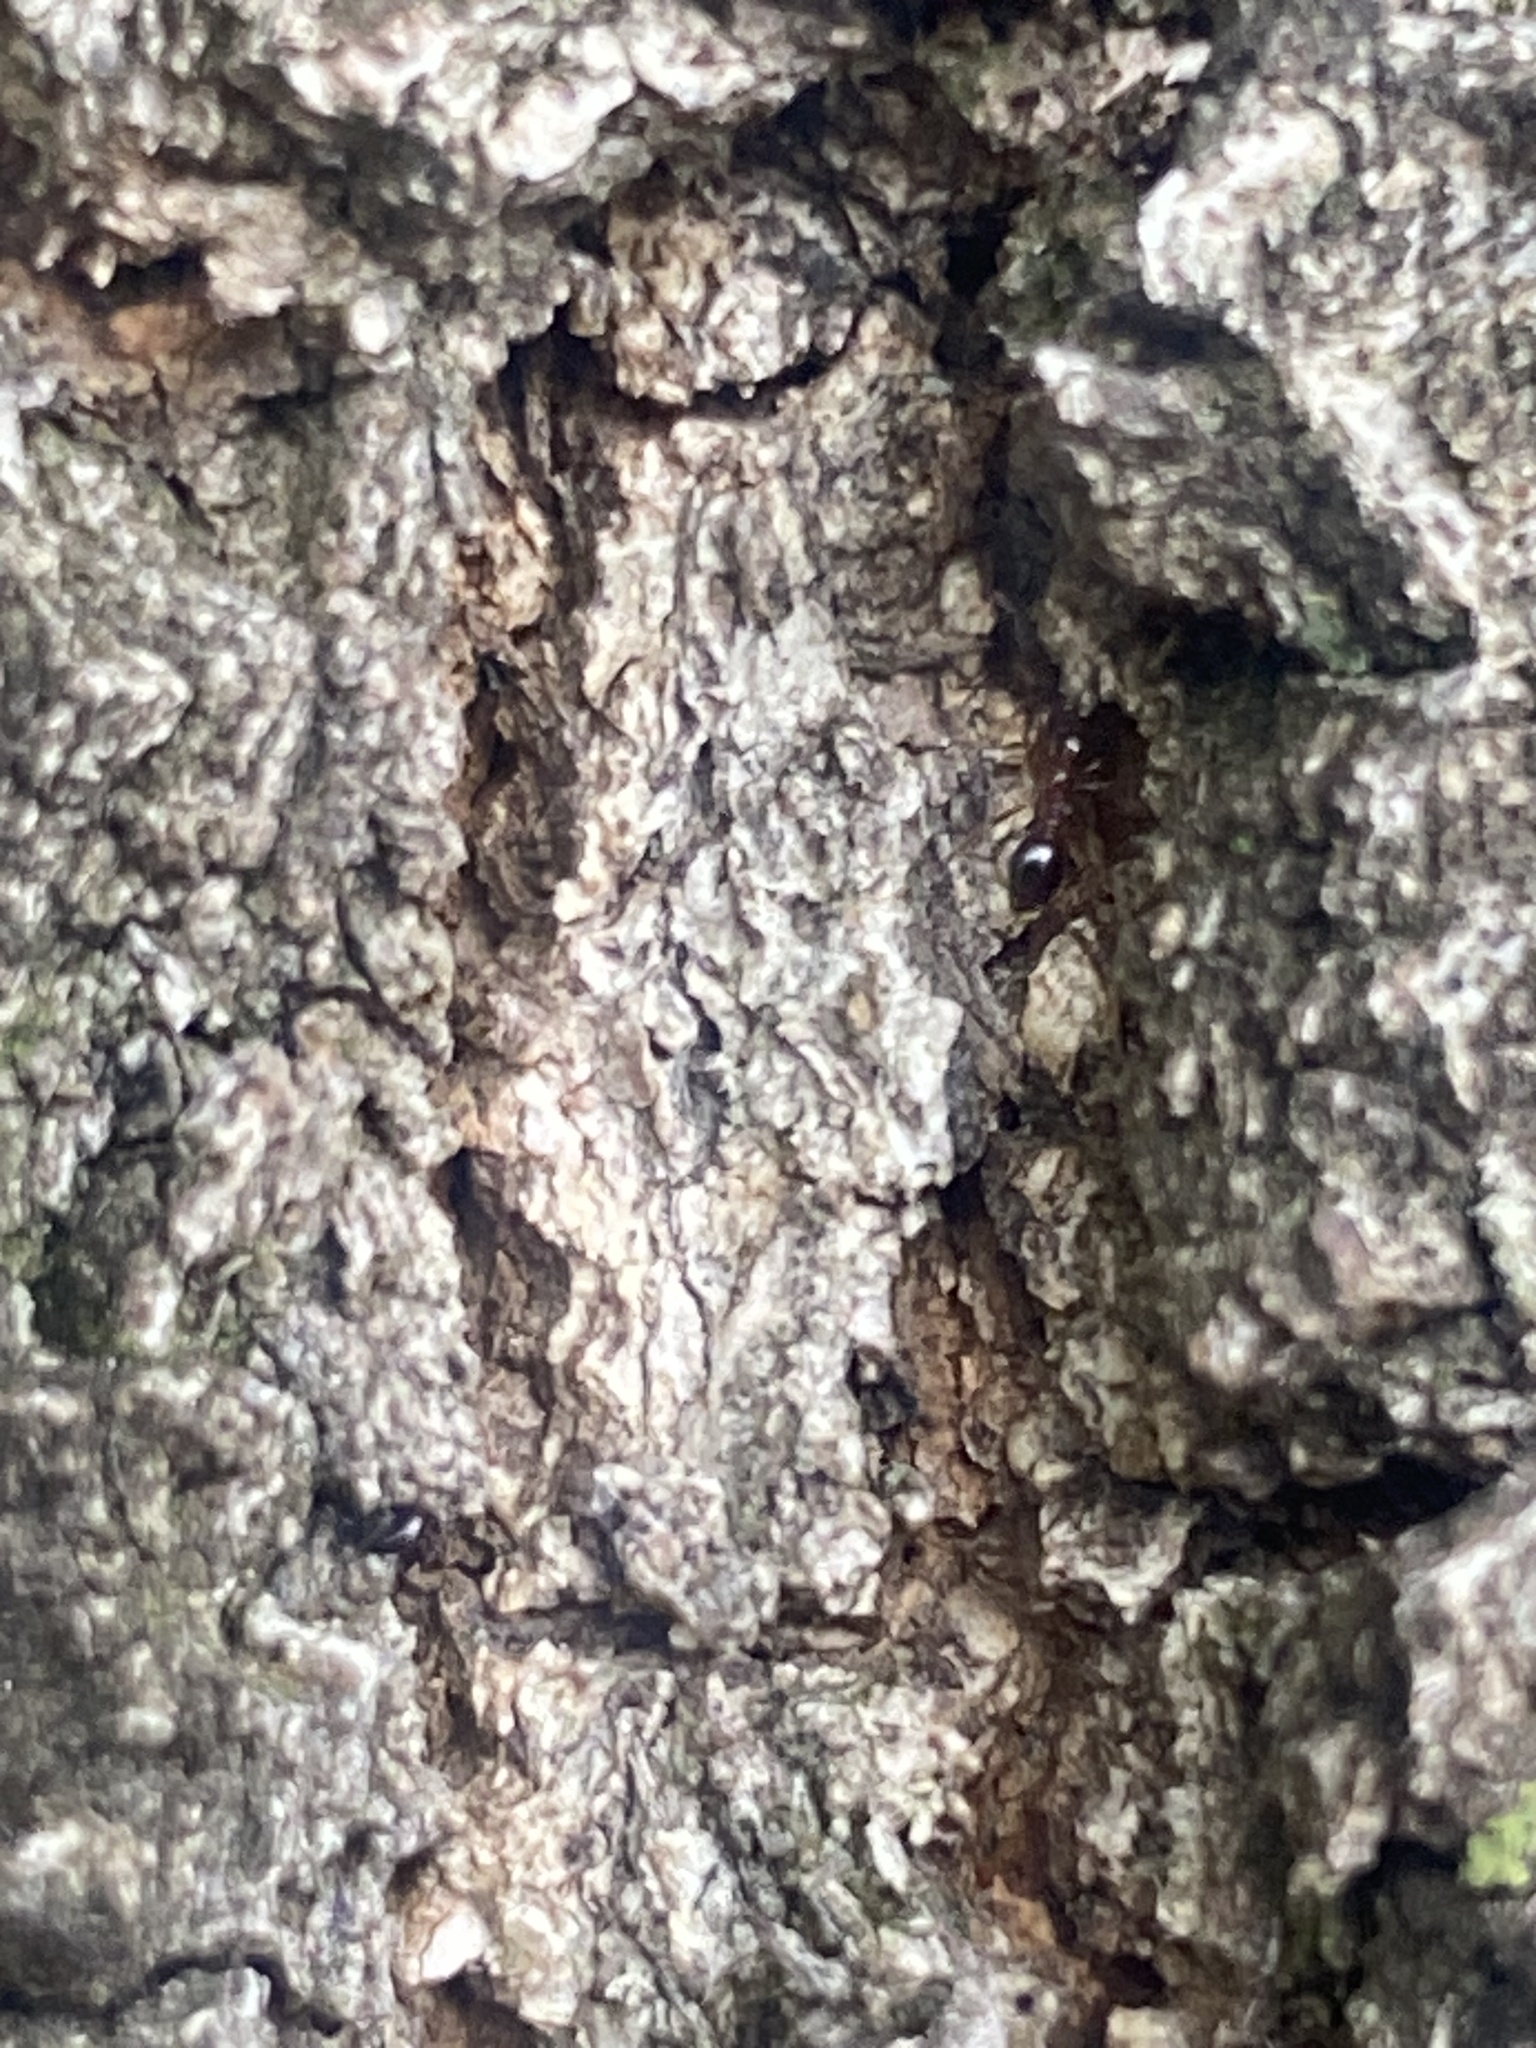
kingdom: Animalia
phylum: Arthropoda
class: Insecta
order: Hymenoptera
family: Formicidae
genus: Solenopsis
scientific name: Solenopsis invicta
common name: Red imported fire ant
